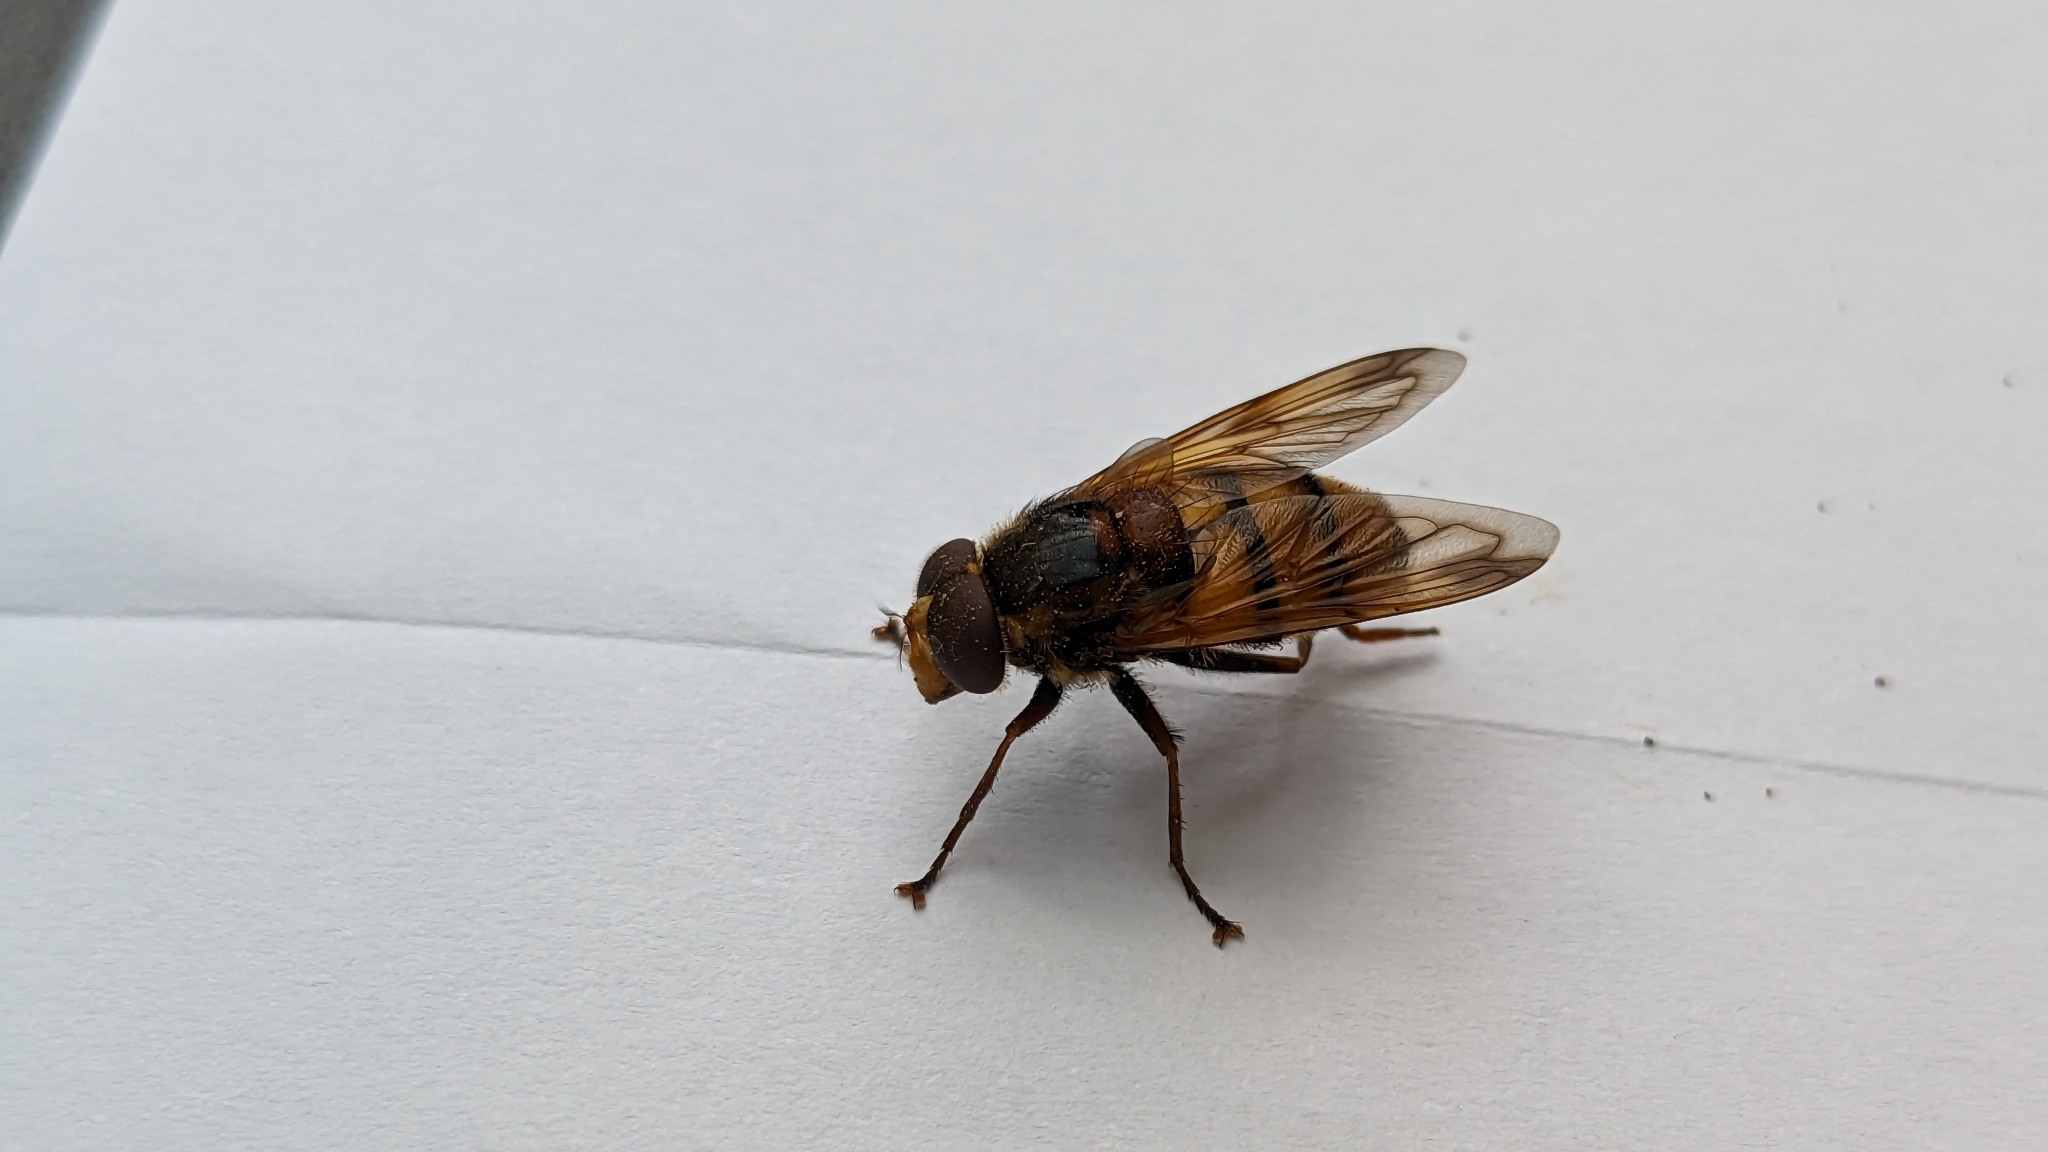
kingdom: Animalia
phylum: Arthropoda
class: Insecta
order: Diptera
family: Syrphidae
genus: Volucella
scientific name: Volucella inanis
